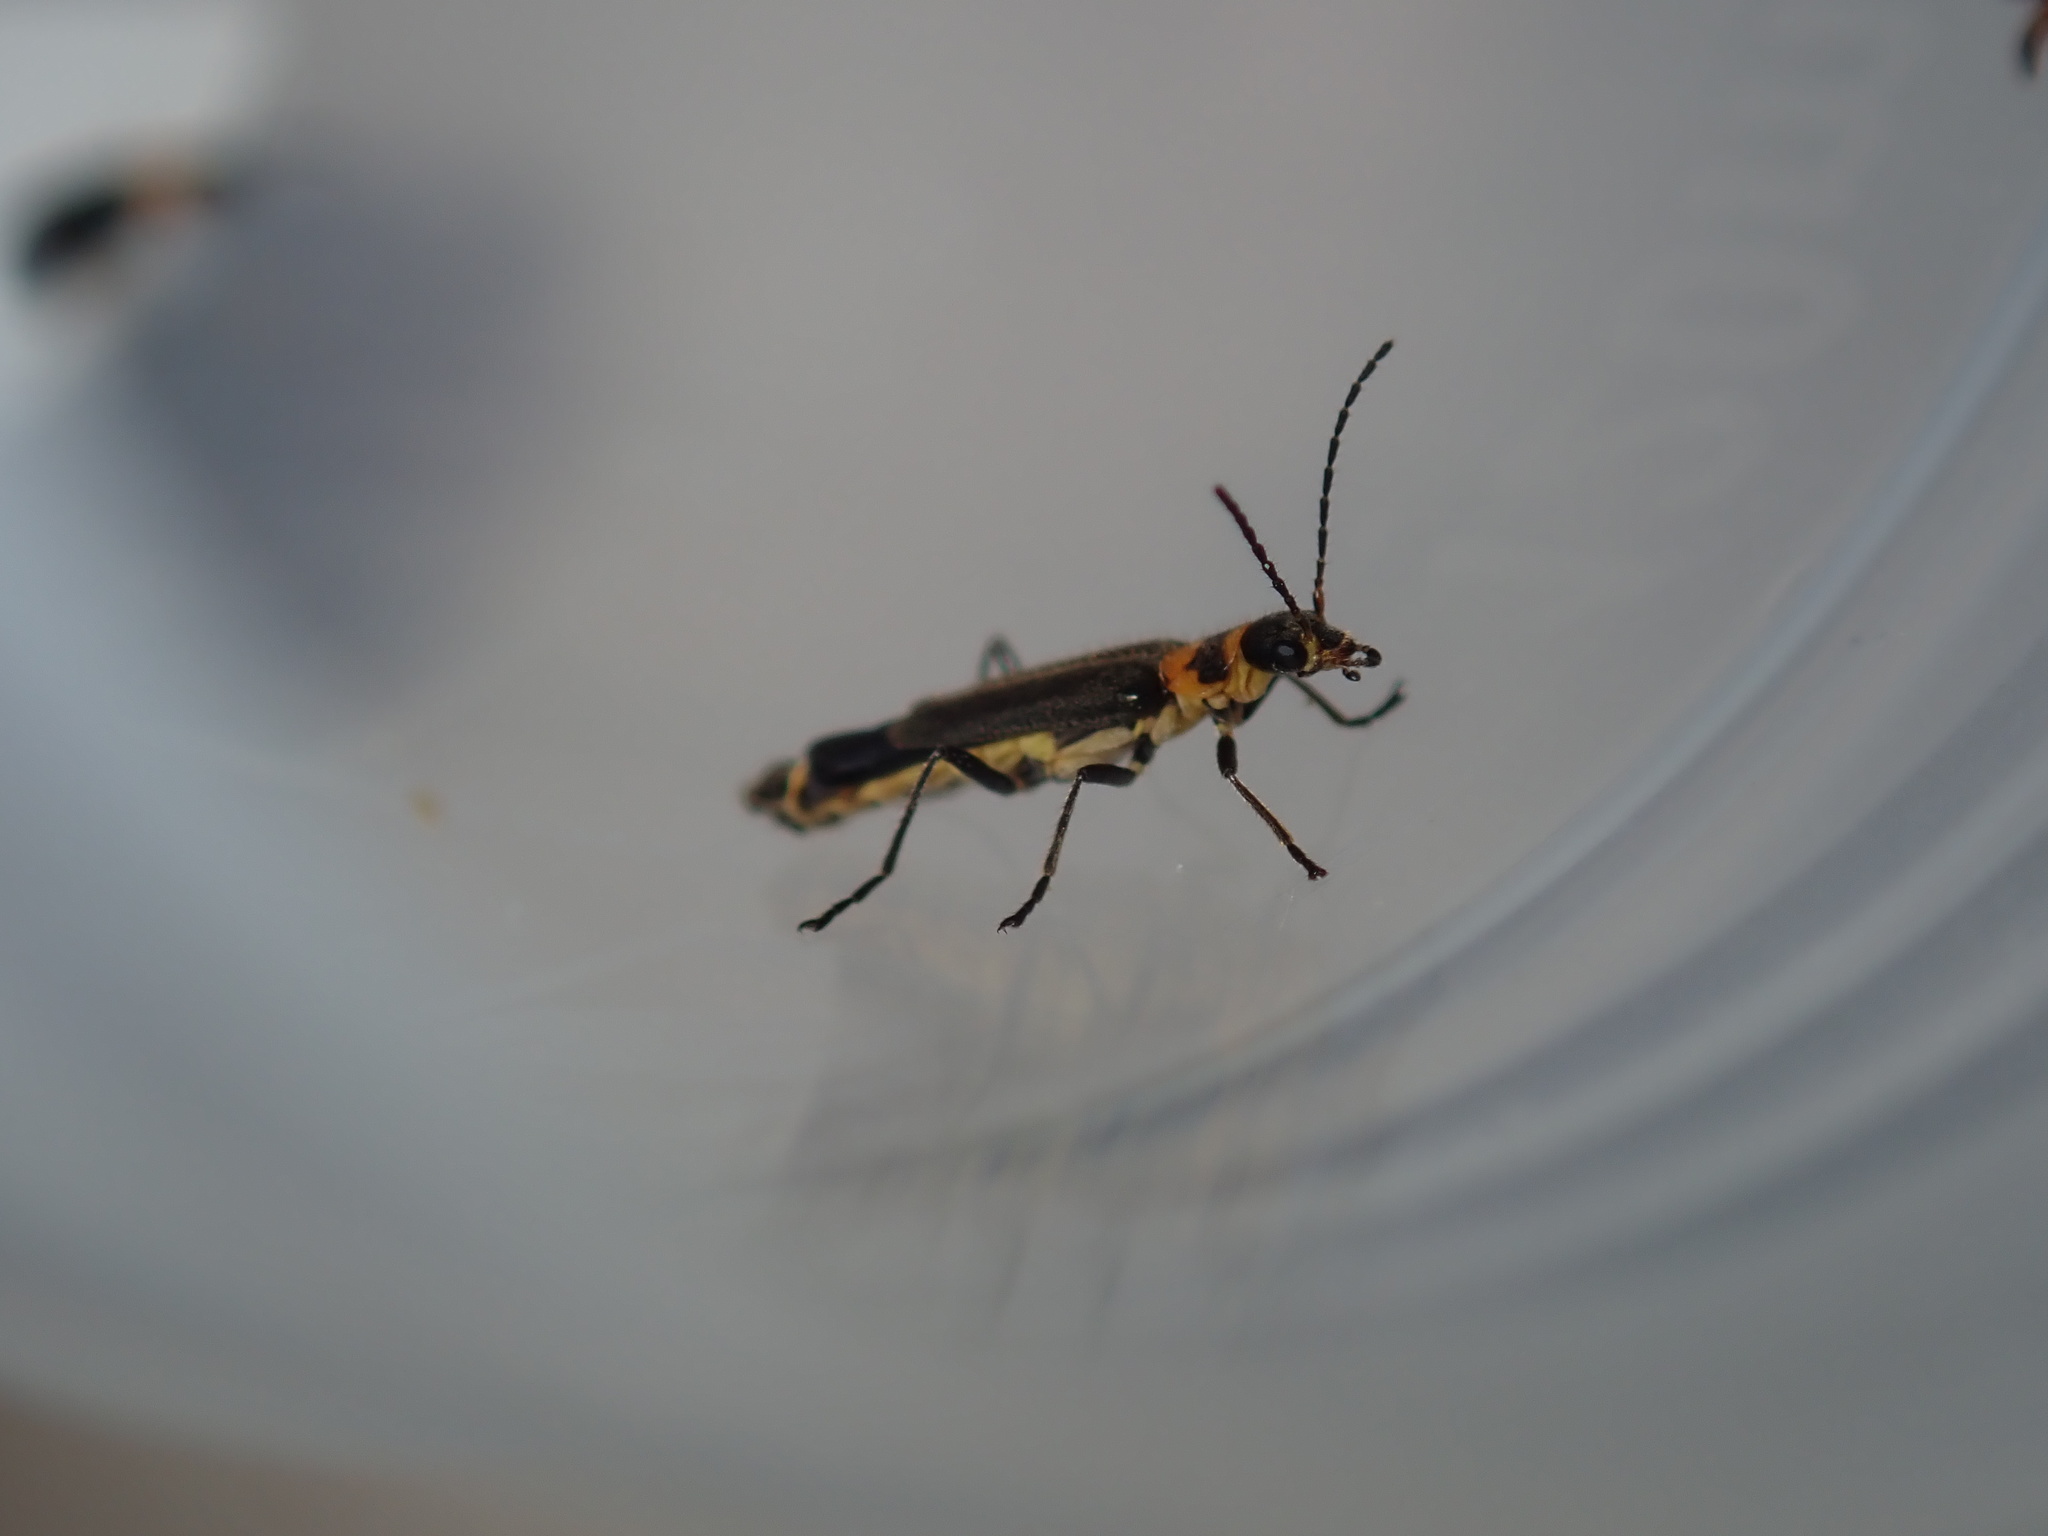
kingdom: Animalia
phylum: Arthropoda
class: Insecta
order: Coleoptera
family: Cantharidae
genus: Chauliognathus
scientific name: Chauliognathus
